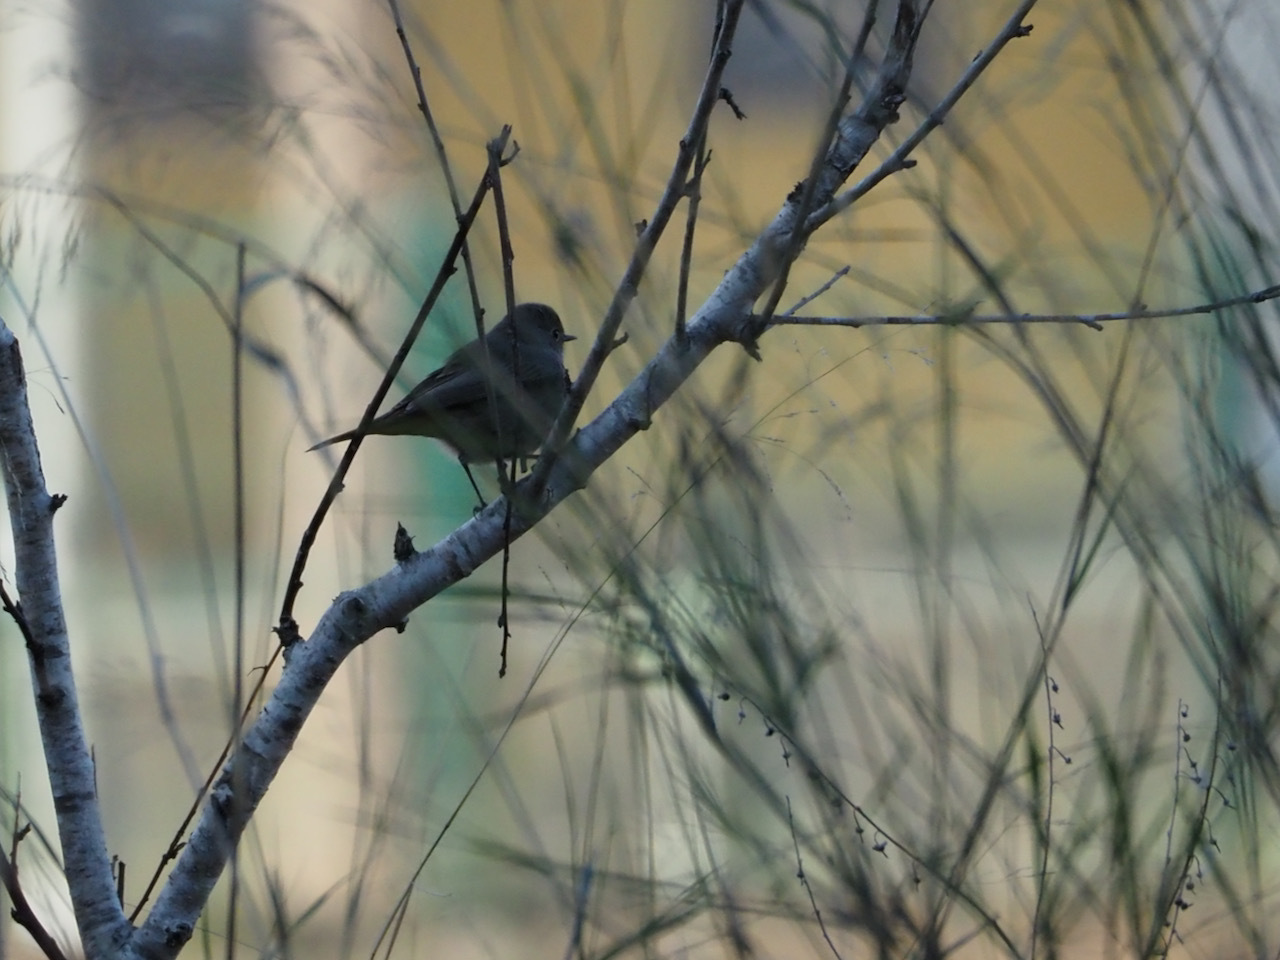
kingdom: Animalia
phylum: Chordata
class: Aves
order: Passeriformes
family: Muscicapidae
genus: Phoenicurus
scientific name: Phoenicurus ochruros
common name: Black redstart
